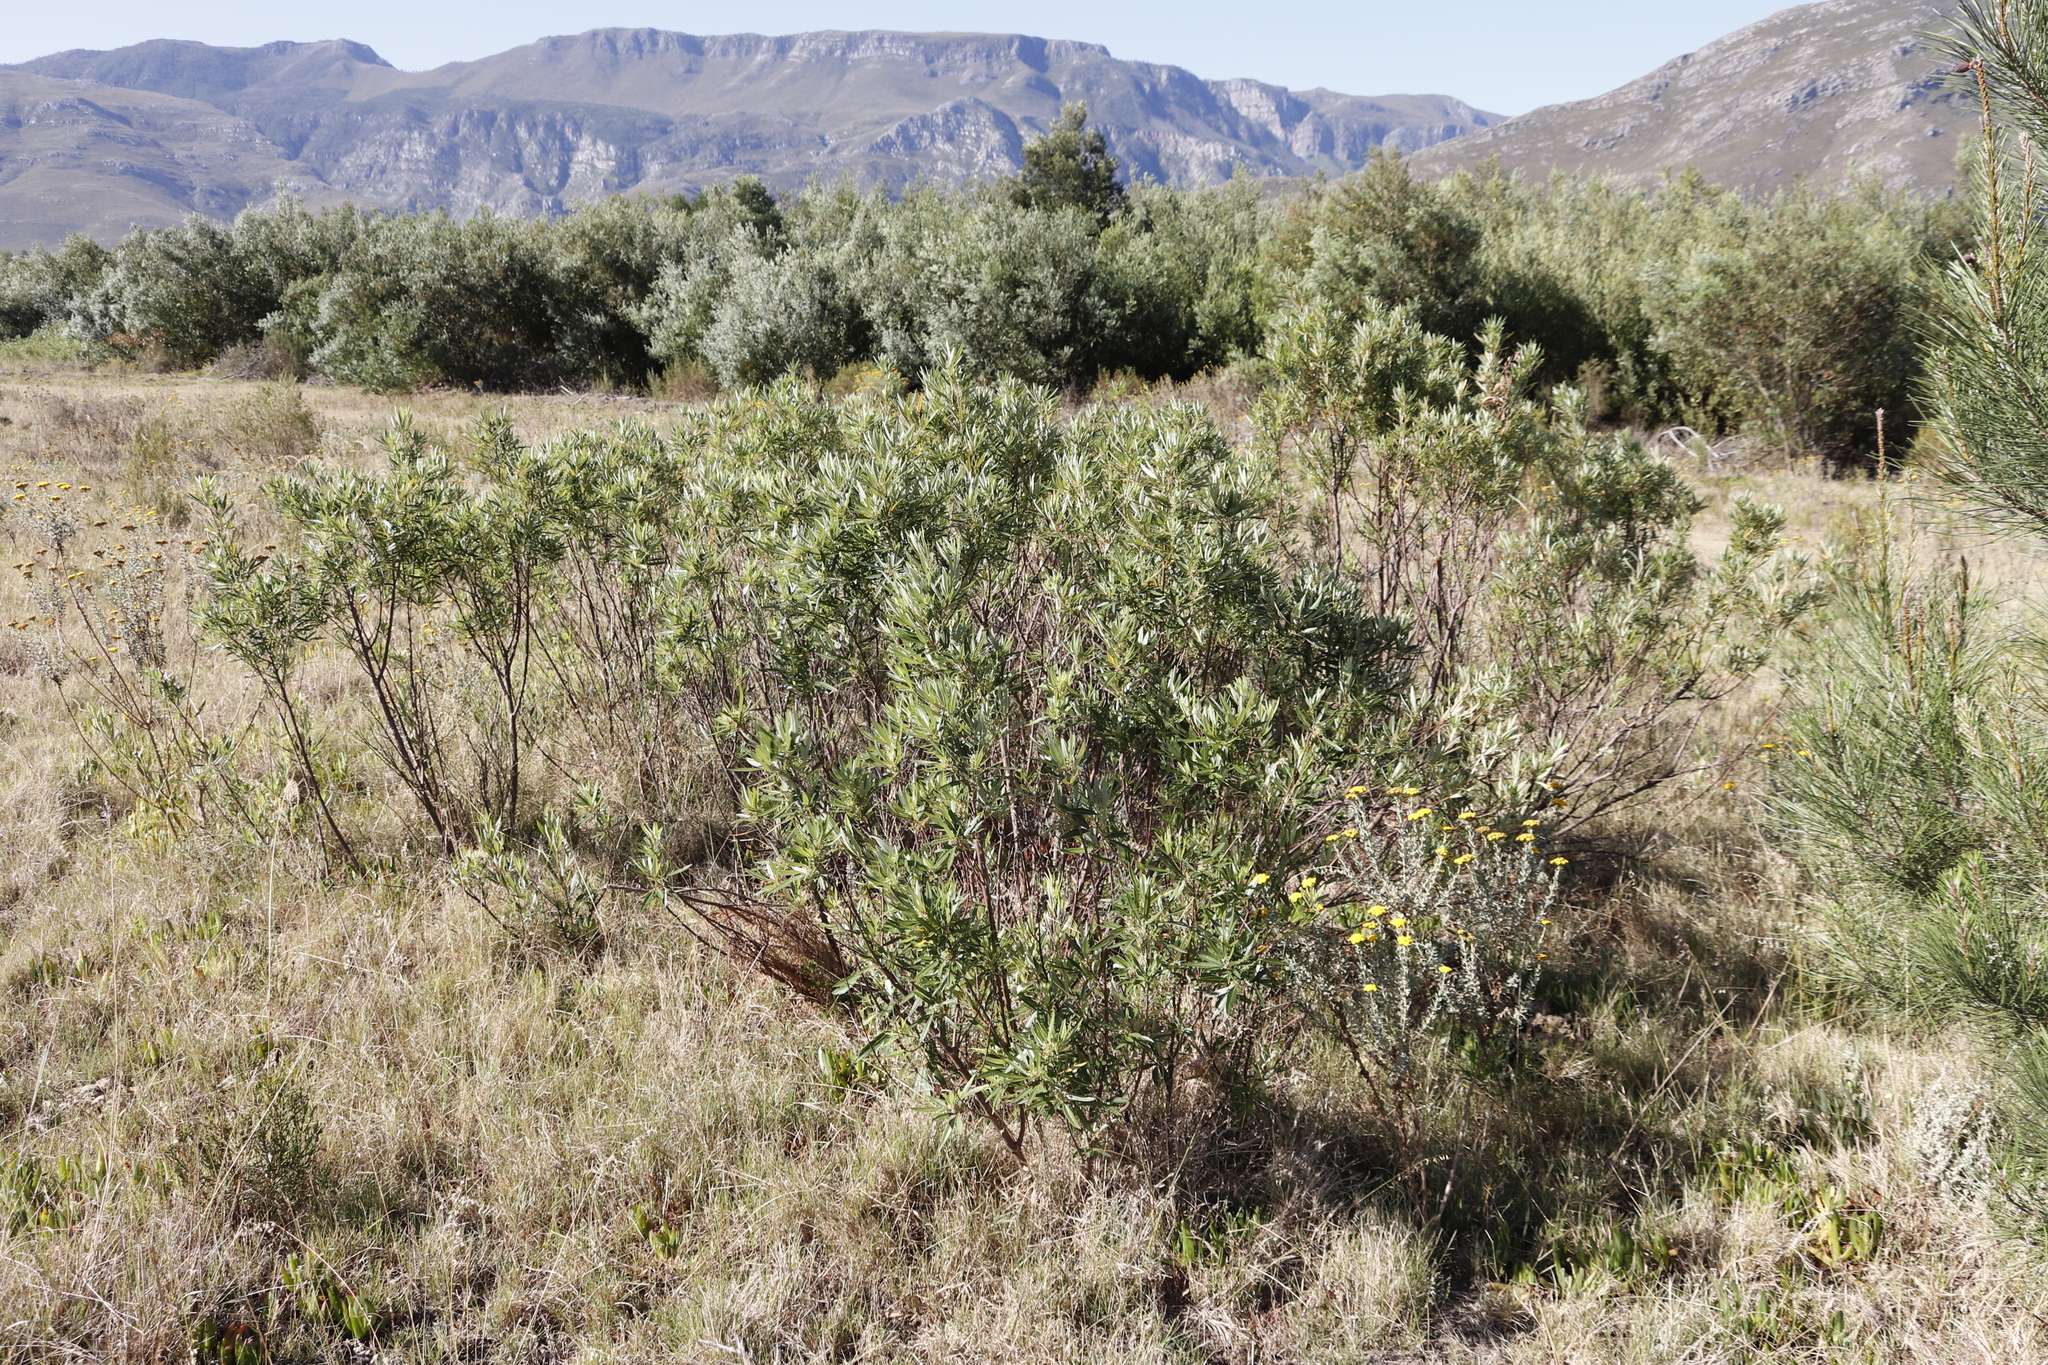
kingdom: Plantae
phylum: Tracheophyta
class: Magnoliopsida
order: Sapindales
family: Anacardiaceae
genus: Searsia
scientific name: Searsia angustifolia
